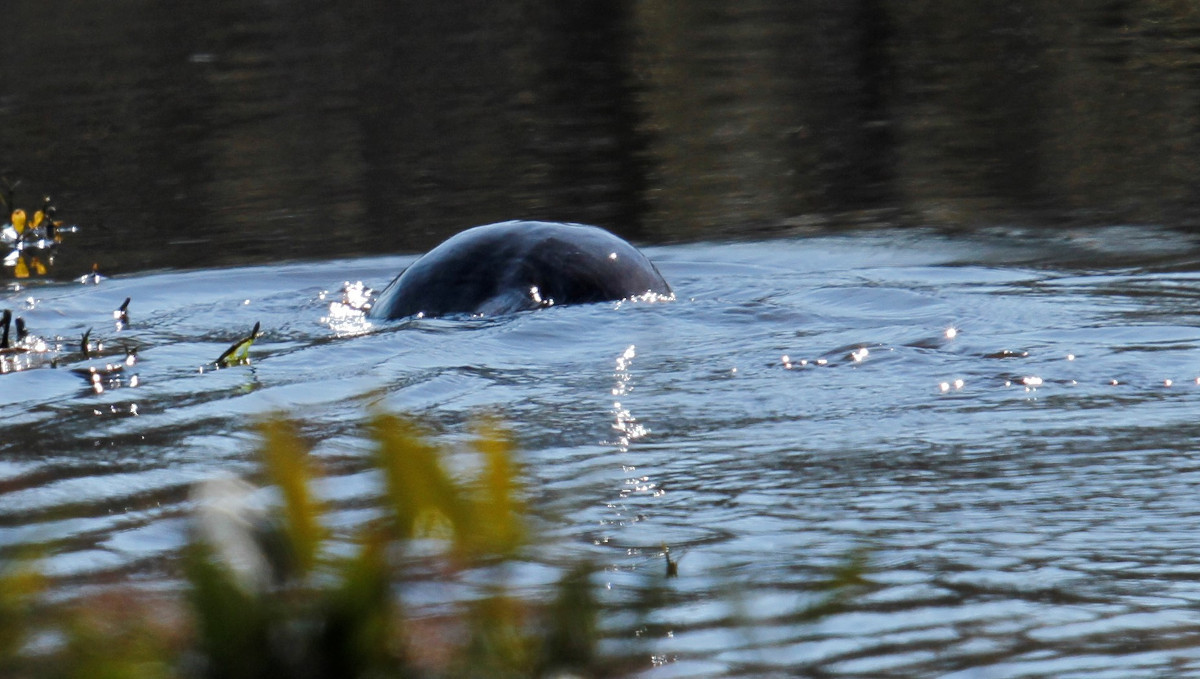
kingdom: Animalia
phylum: Chordata
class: Mammalia
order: Carnivora
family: Mustelidae
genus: Lontra
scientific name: Lontra canadensis
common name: North american river otter
